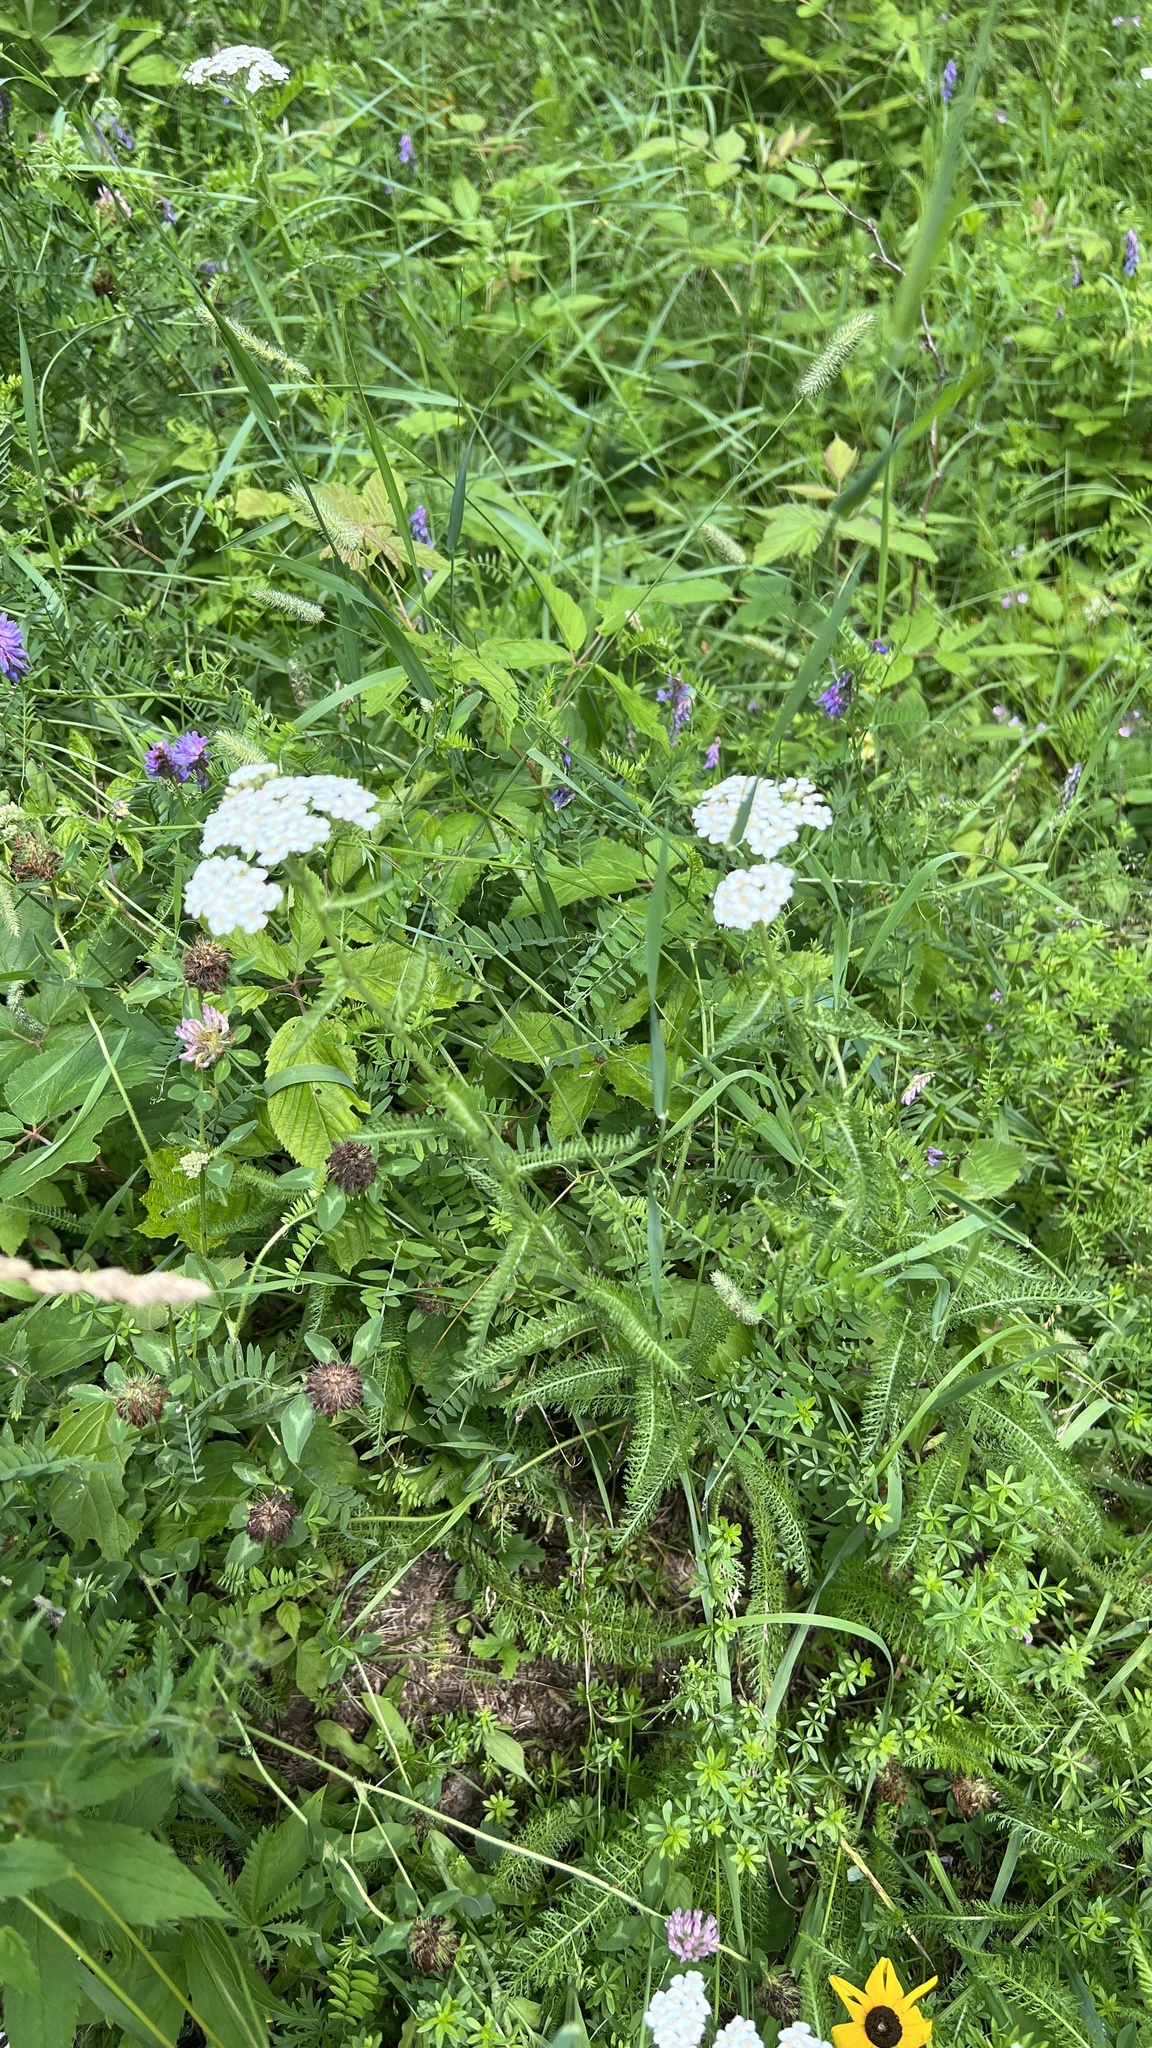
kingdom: Plantae
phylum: Tracheophyta
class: Magnoliopsida
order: Asterales
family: Asteraceae
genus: Achillea
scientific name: Achillea millefolium
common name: Yarrow
